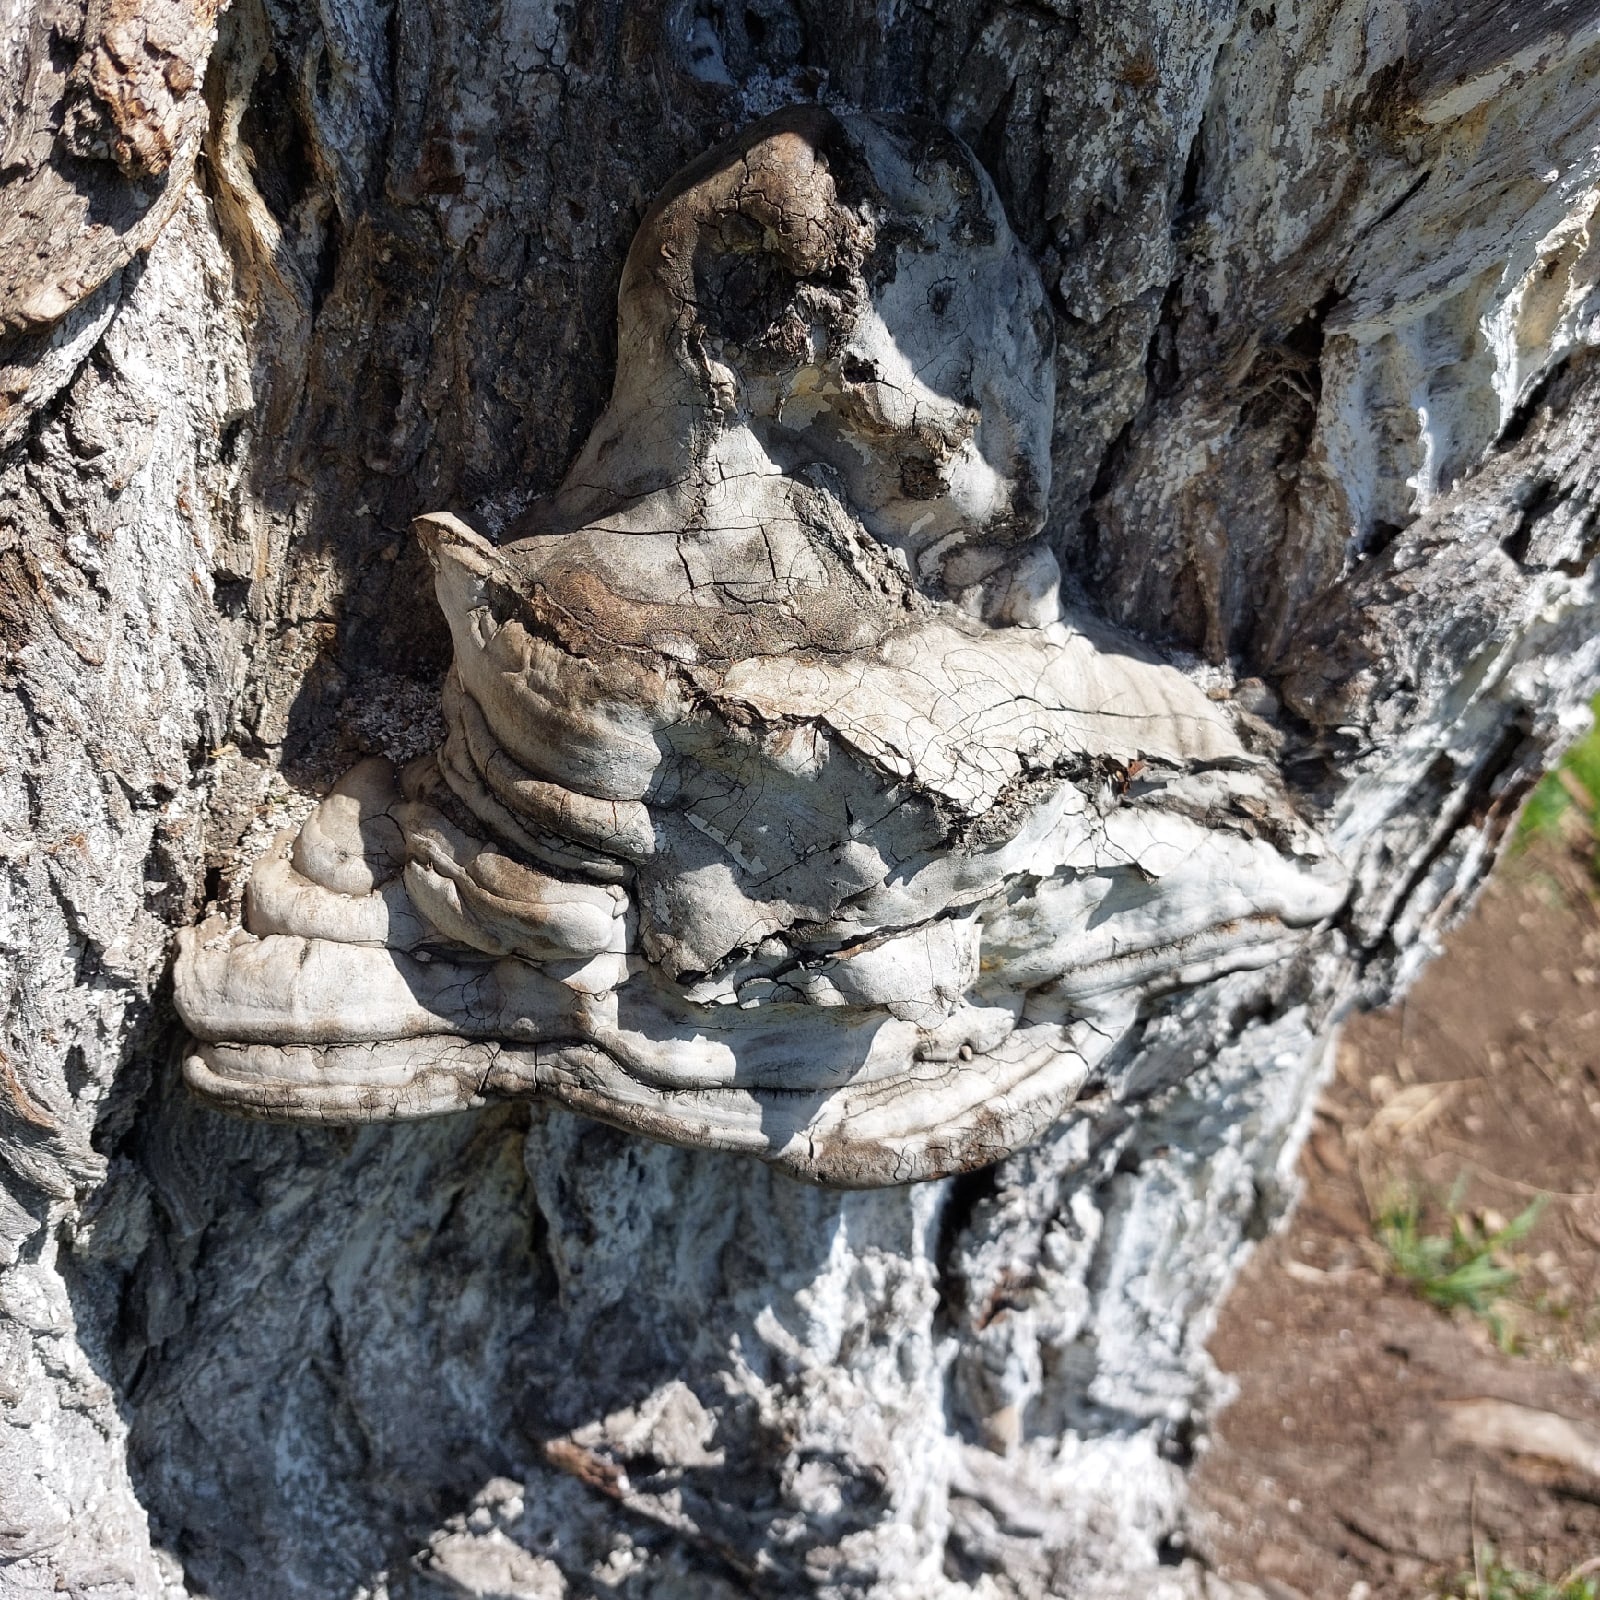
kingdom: Fungi
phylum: Basidiomycota
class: Agaricomycetes
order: Polyporales
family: Polyporaceae
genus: Fomes
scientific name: Fomes fomentarius
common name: Hoof fungus
